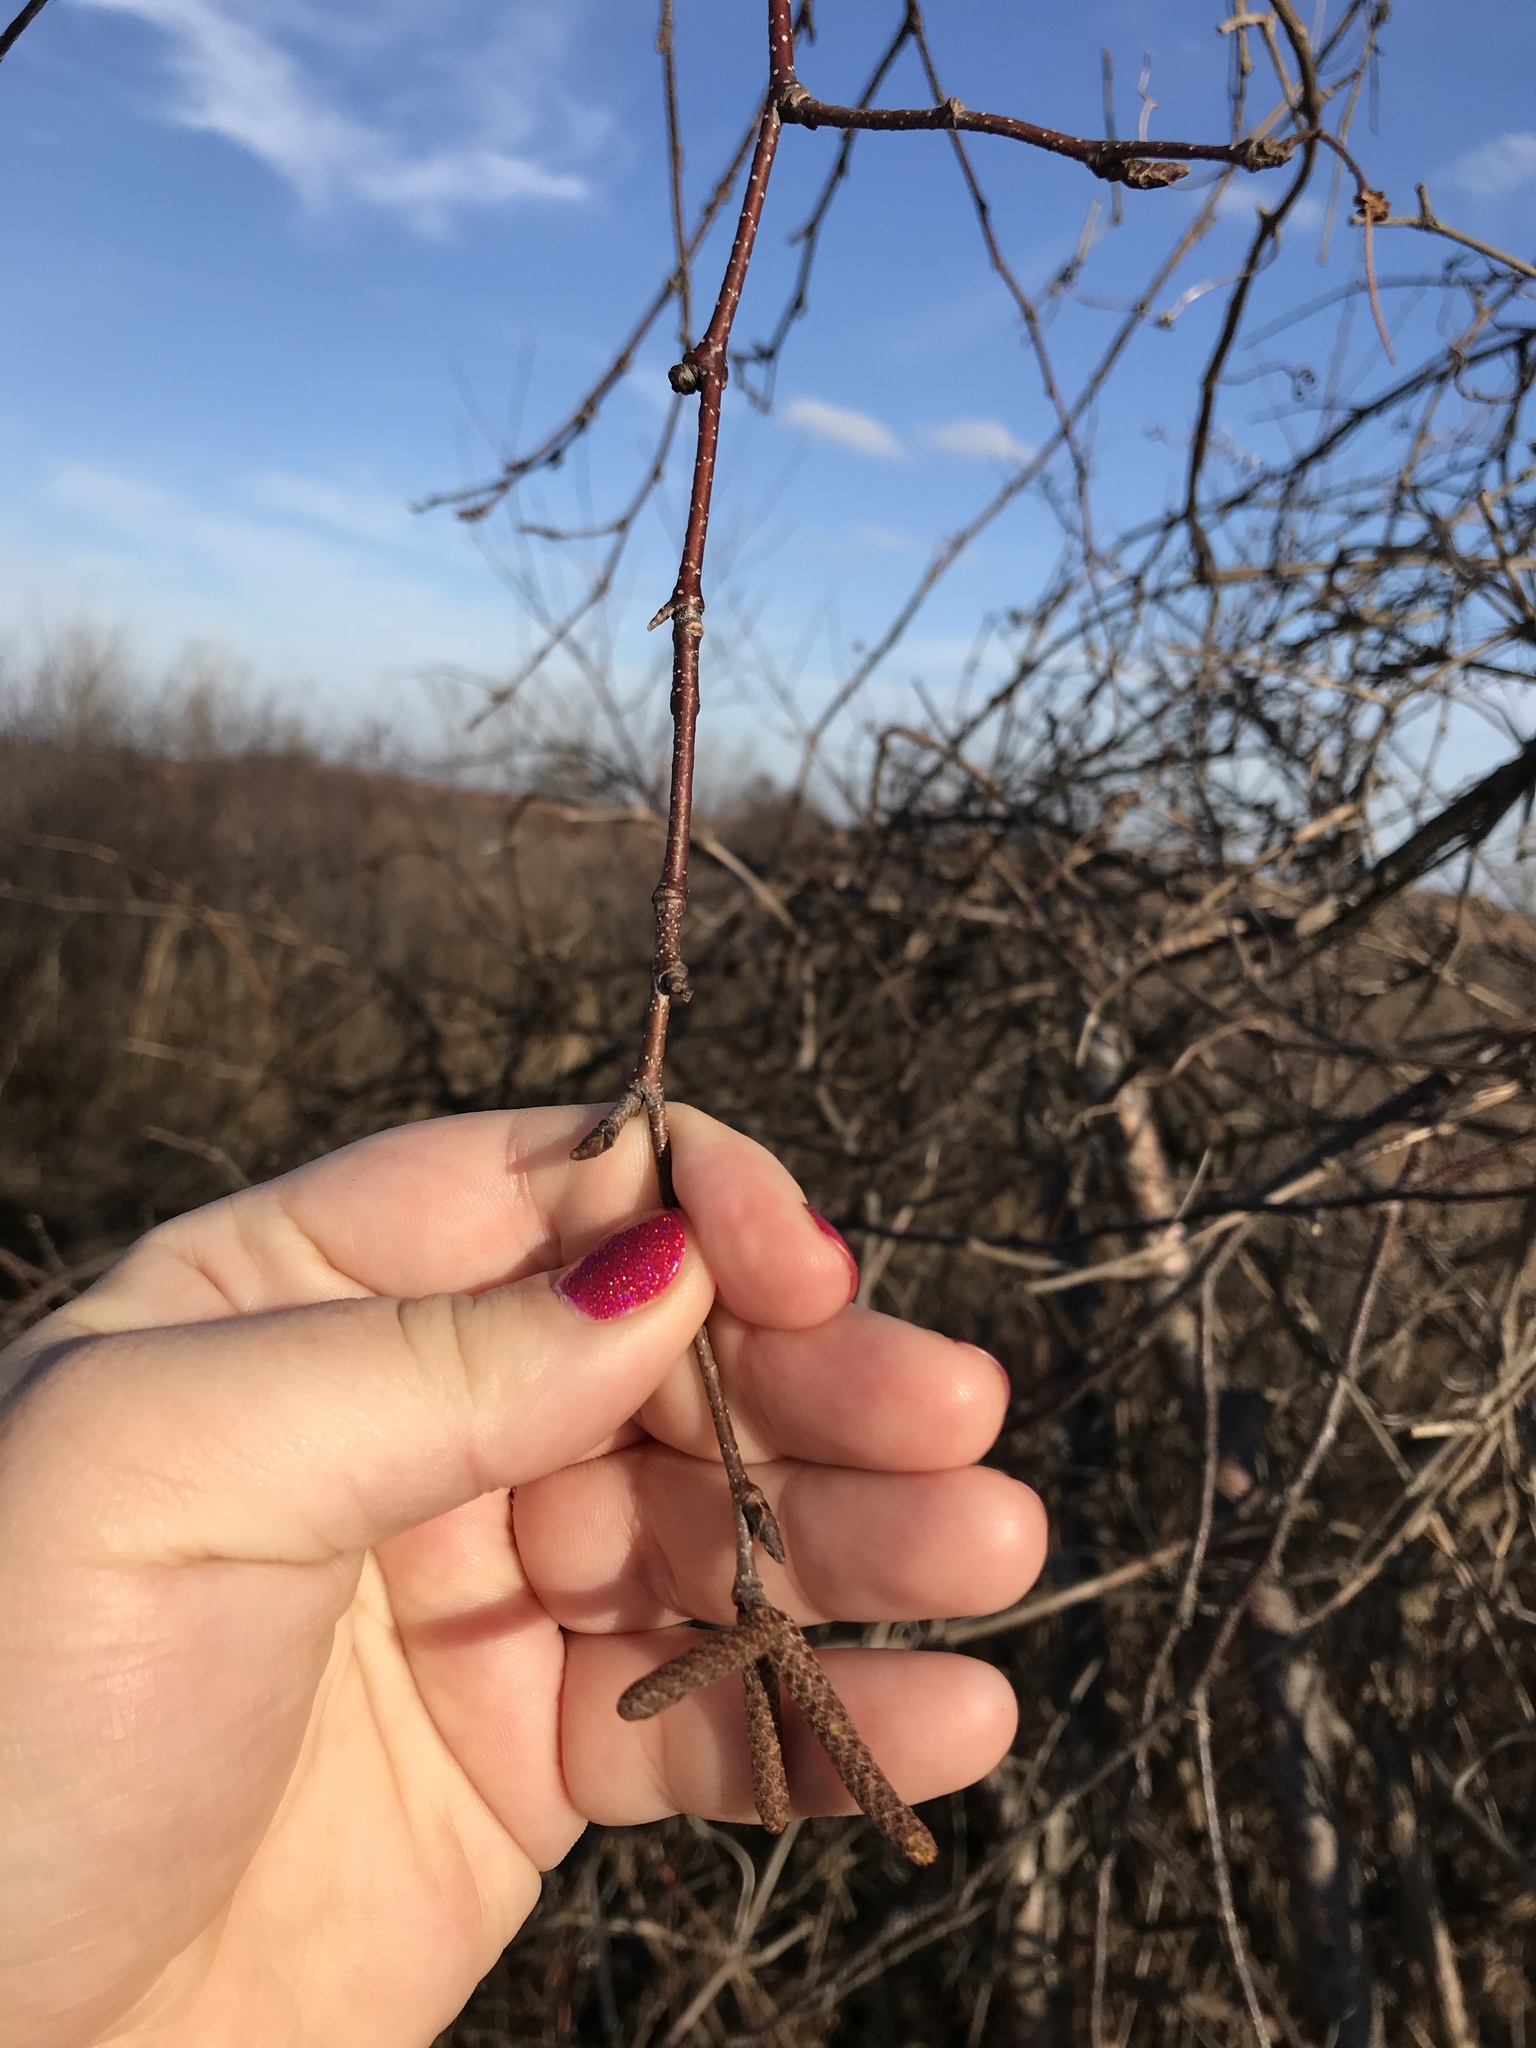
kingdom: Plantae
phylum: Tracheophyta
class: Magnoliopsida
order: Fagales
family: Betulaceae
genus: Betula
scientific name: Betula papyrifera
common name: Paper birch
